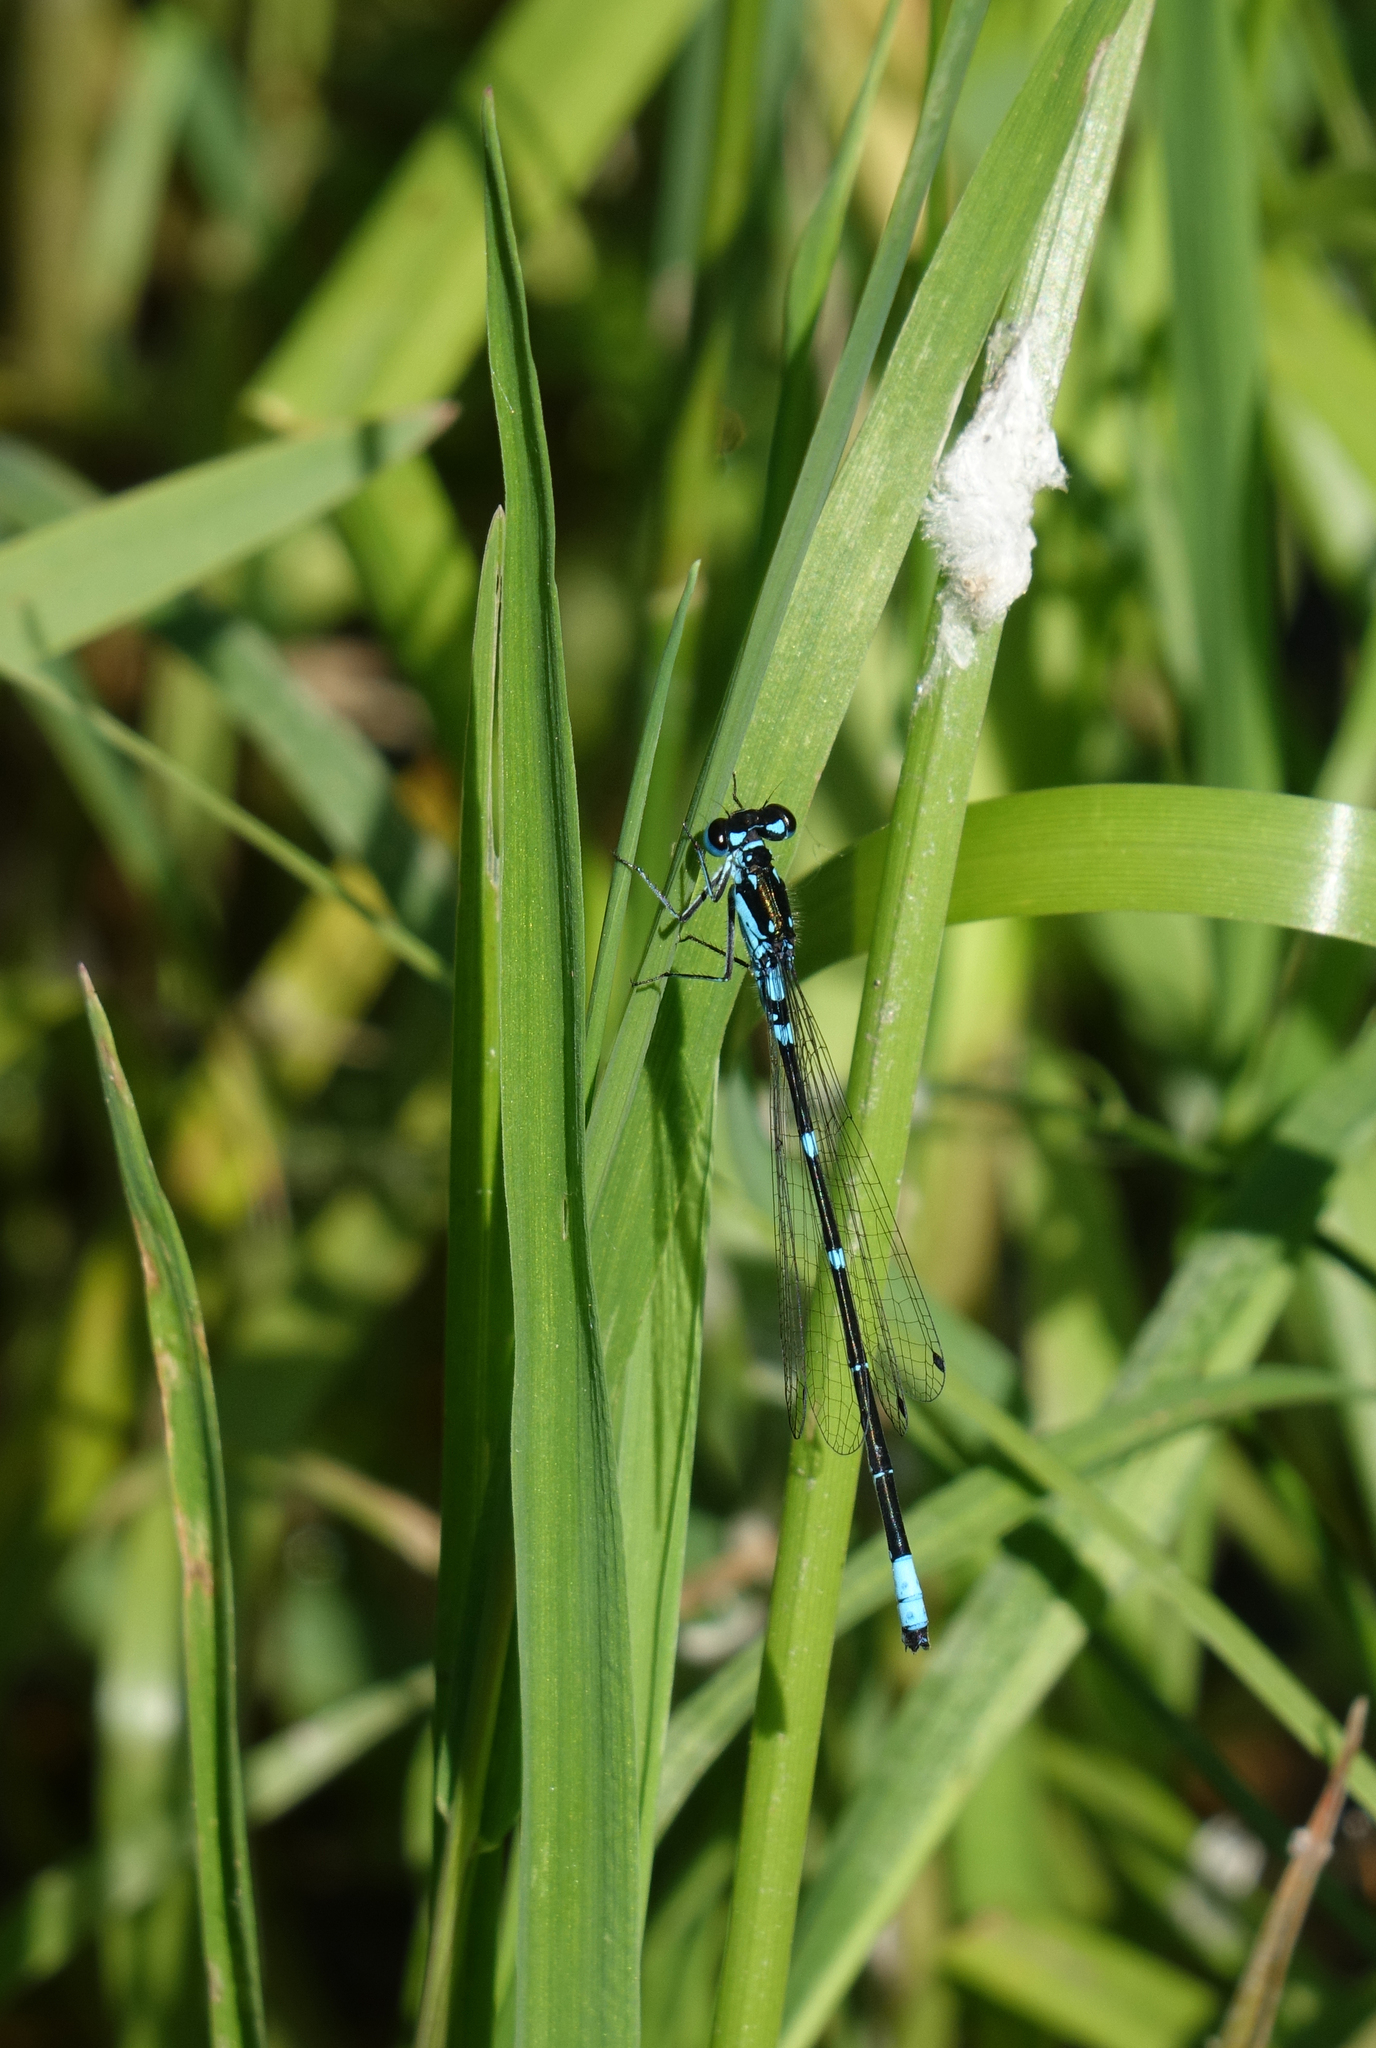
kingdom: Animalia
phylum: Arthropoda
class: Insecta
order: Odonata
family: Coenagrionidae
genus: Coenagrion
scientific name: Coenagrion pulchellum
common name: Variable bluet
